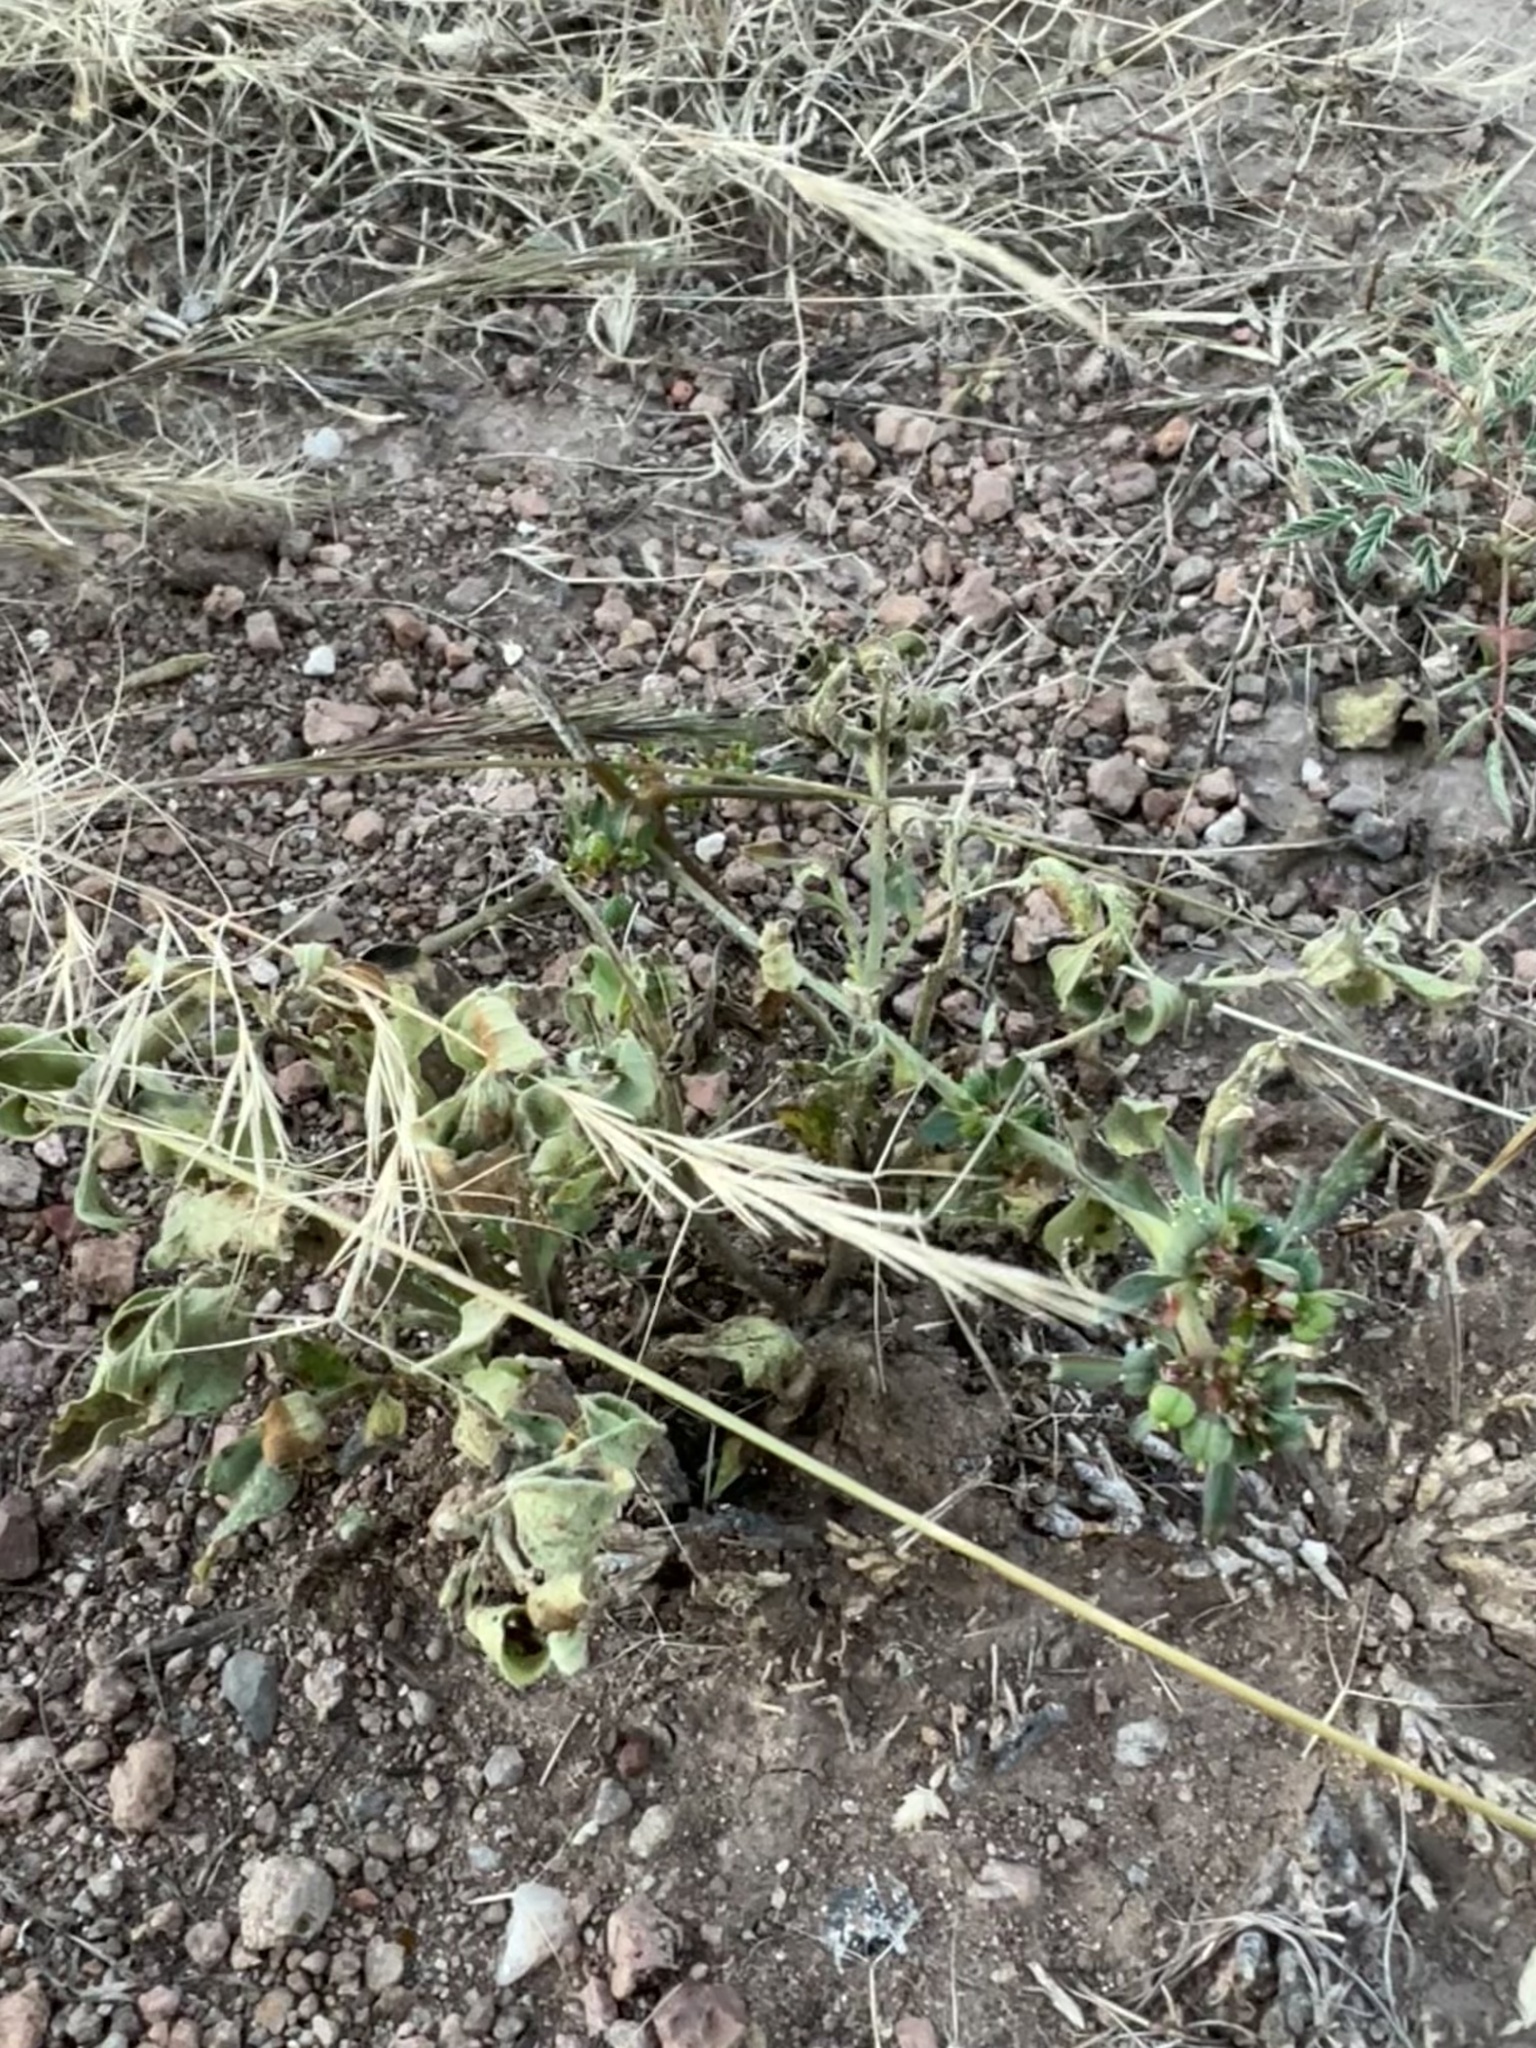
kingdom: Plantae
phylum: Tracheophyta
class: Magnoliopsida
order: Malpighiales
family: Euphorbiaceae
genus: Euphorbia
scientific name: Euphorbia exstipulata
